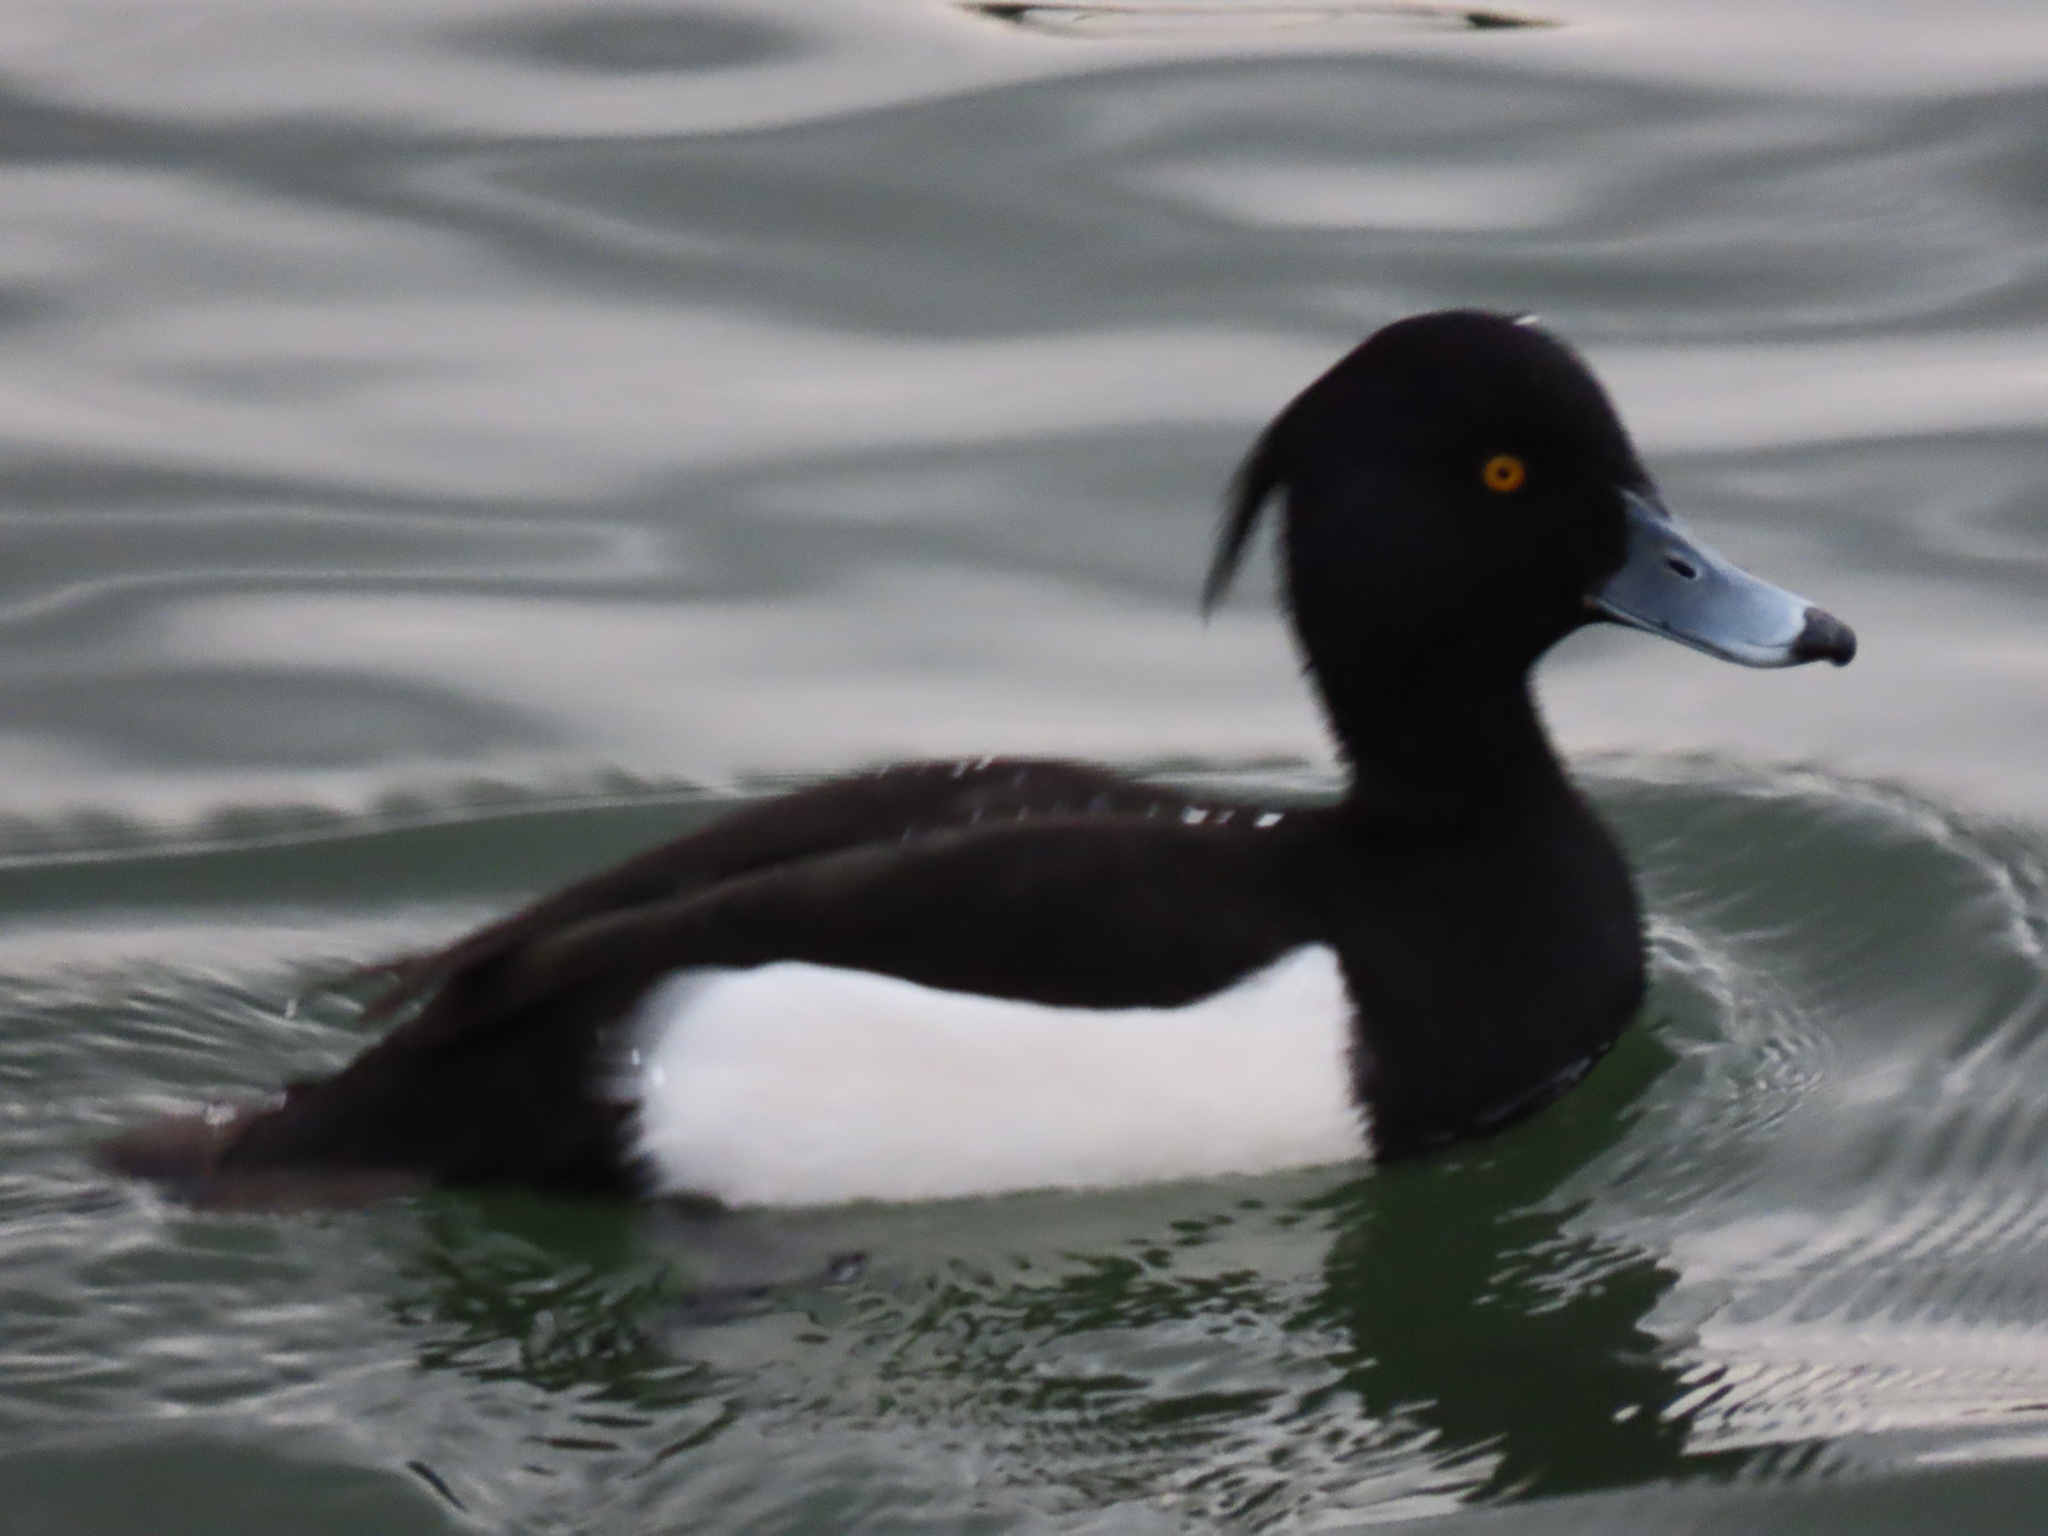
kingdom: Animalia
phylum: Chordata
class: Aves
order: Anseriformes
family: Anatidae
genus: Aythya
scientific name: Aythya fuligula
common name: Tufted duck
